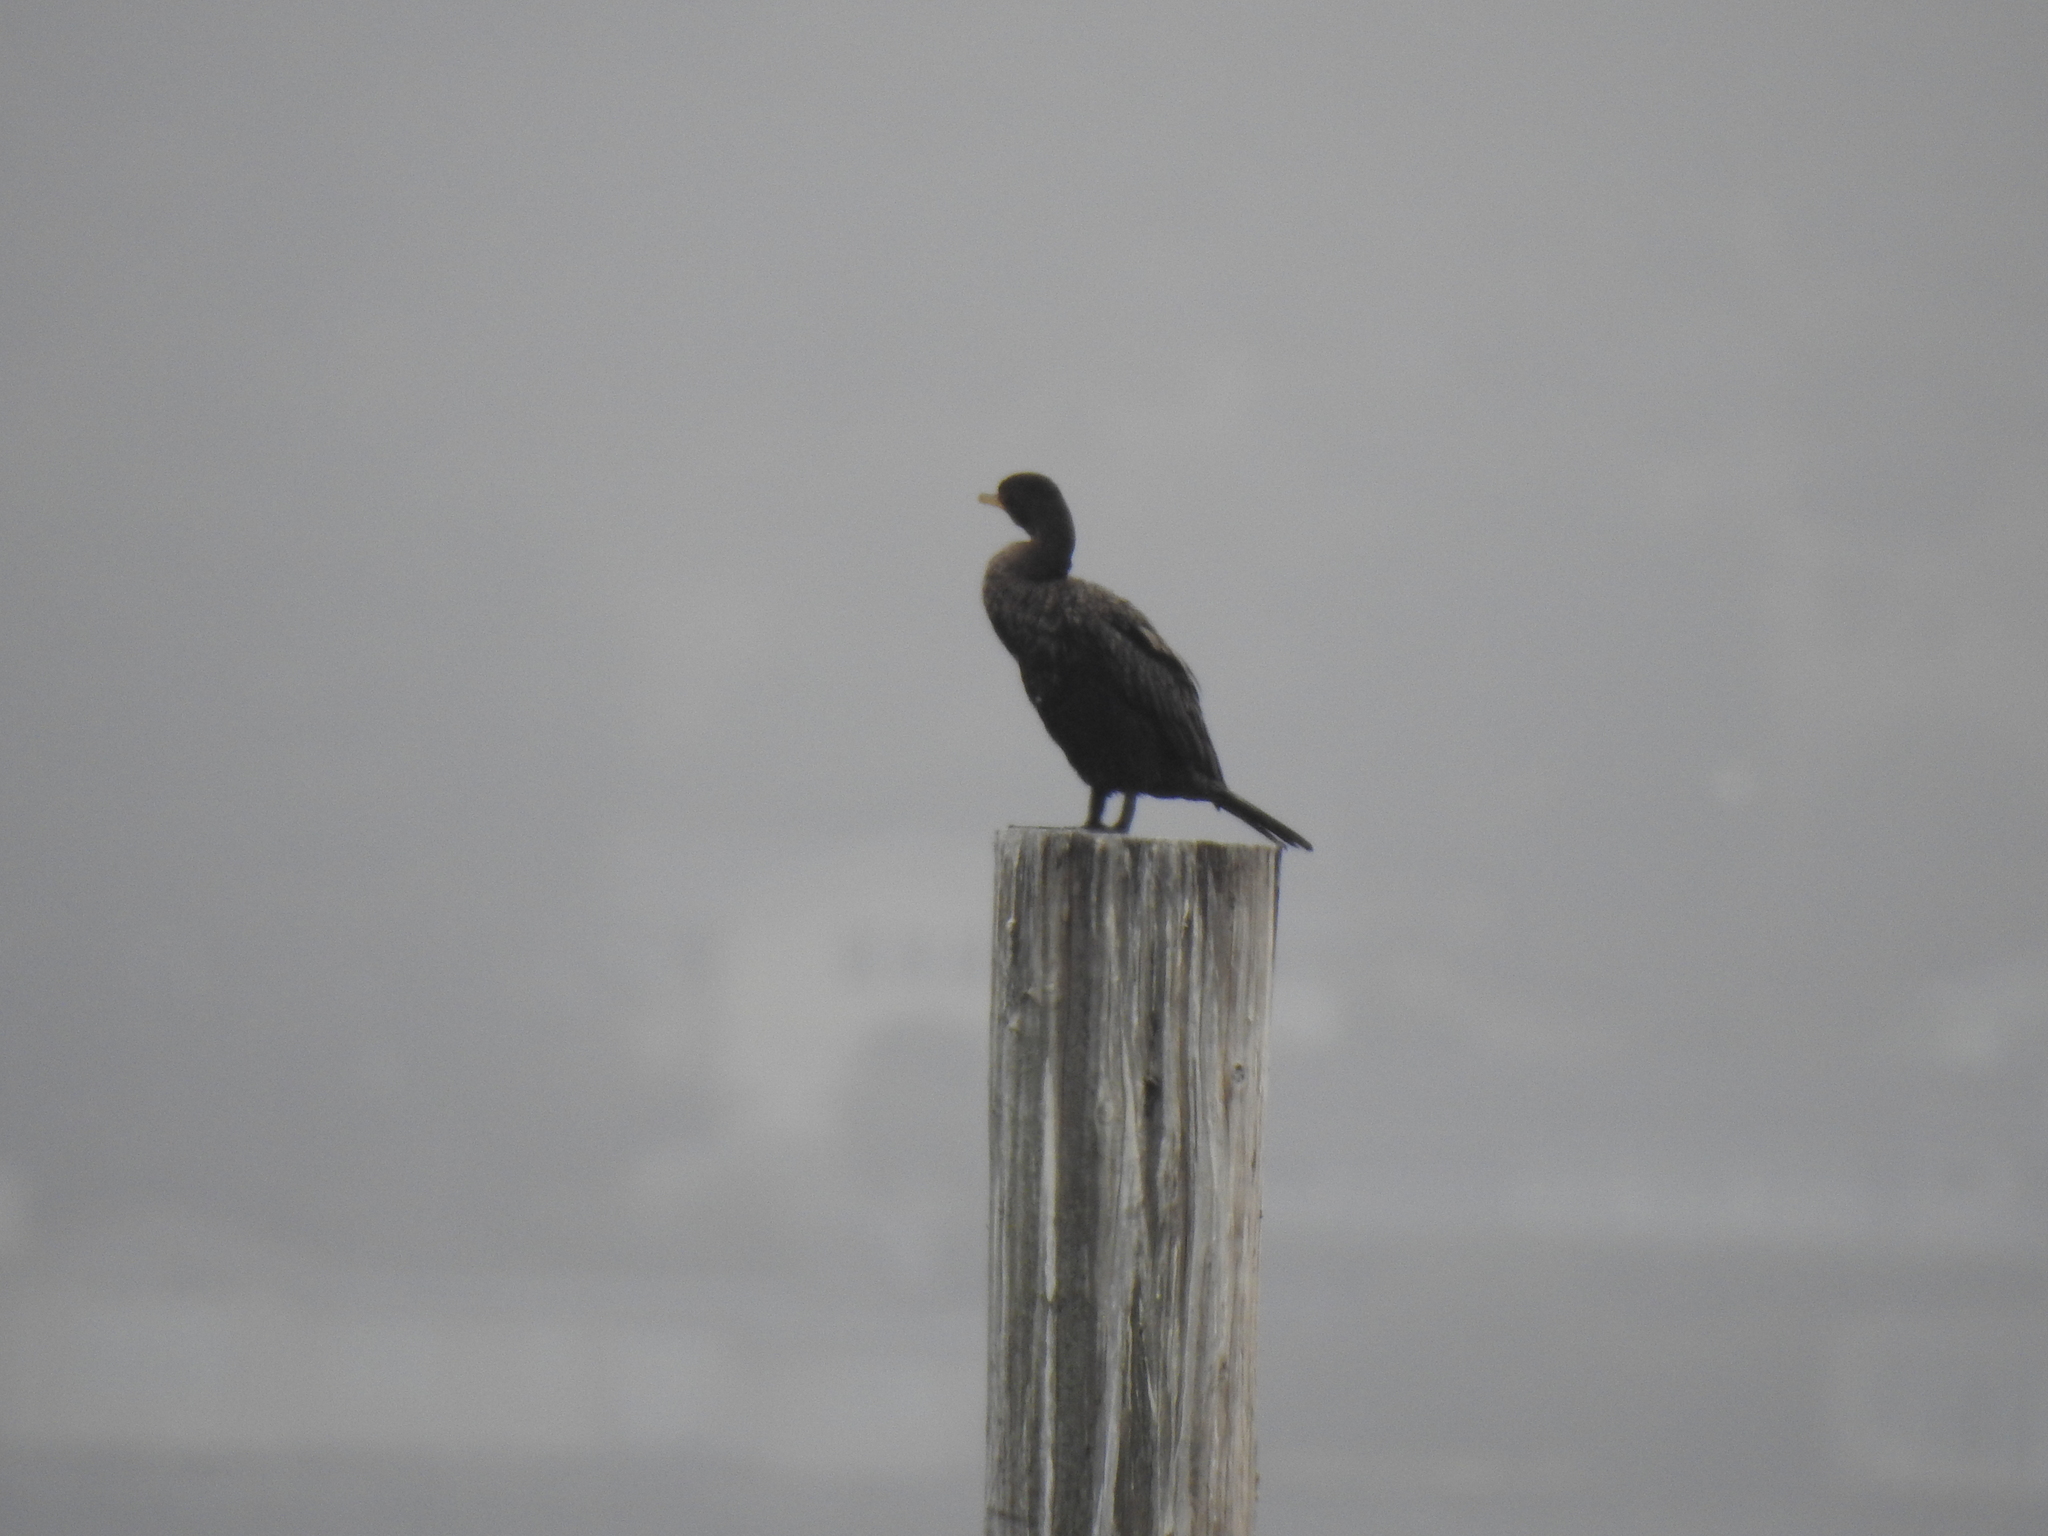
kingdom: Animalia
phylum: Chordata
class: Aves
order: Suliformes
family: Phalacrocoracidae
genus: Phalacrocorax
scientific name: Phalacrocorax auritus
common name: Double-crested cormorant
